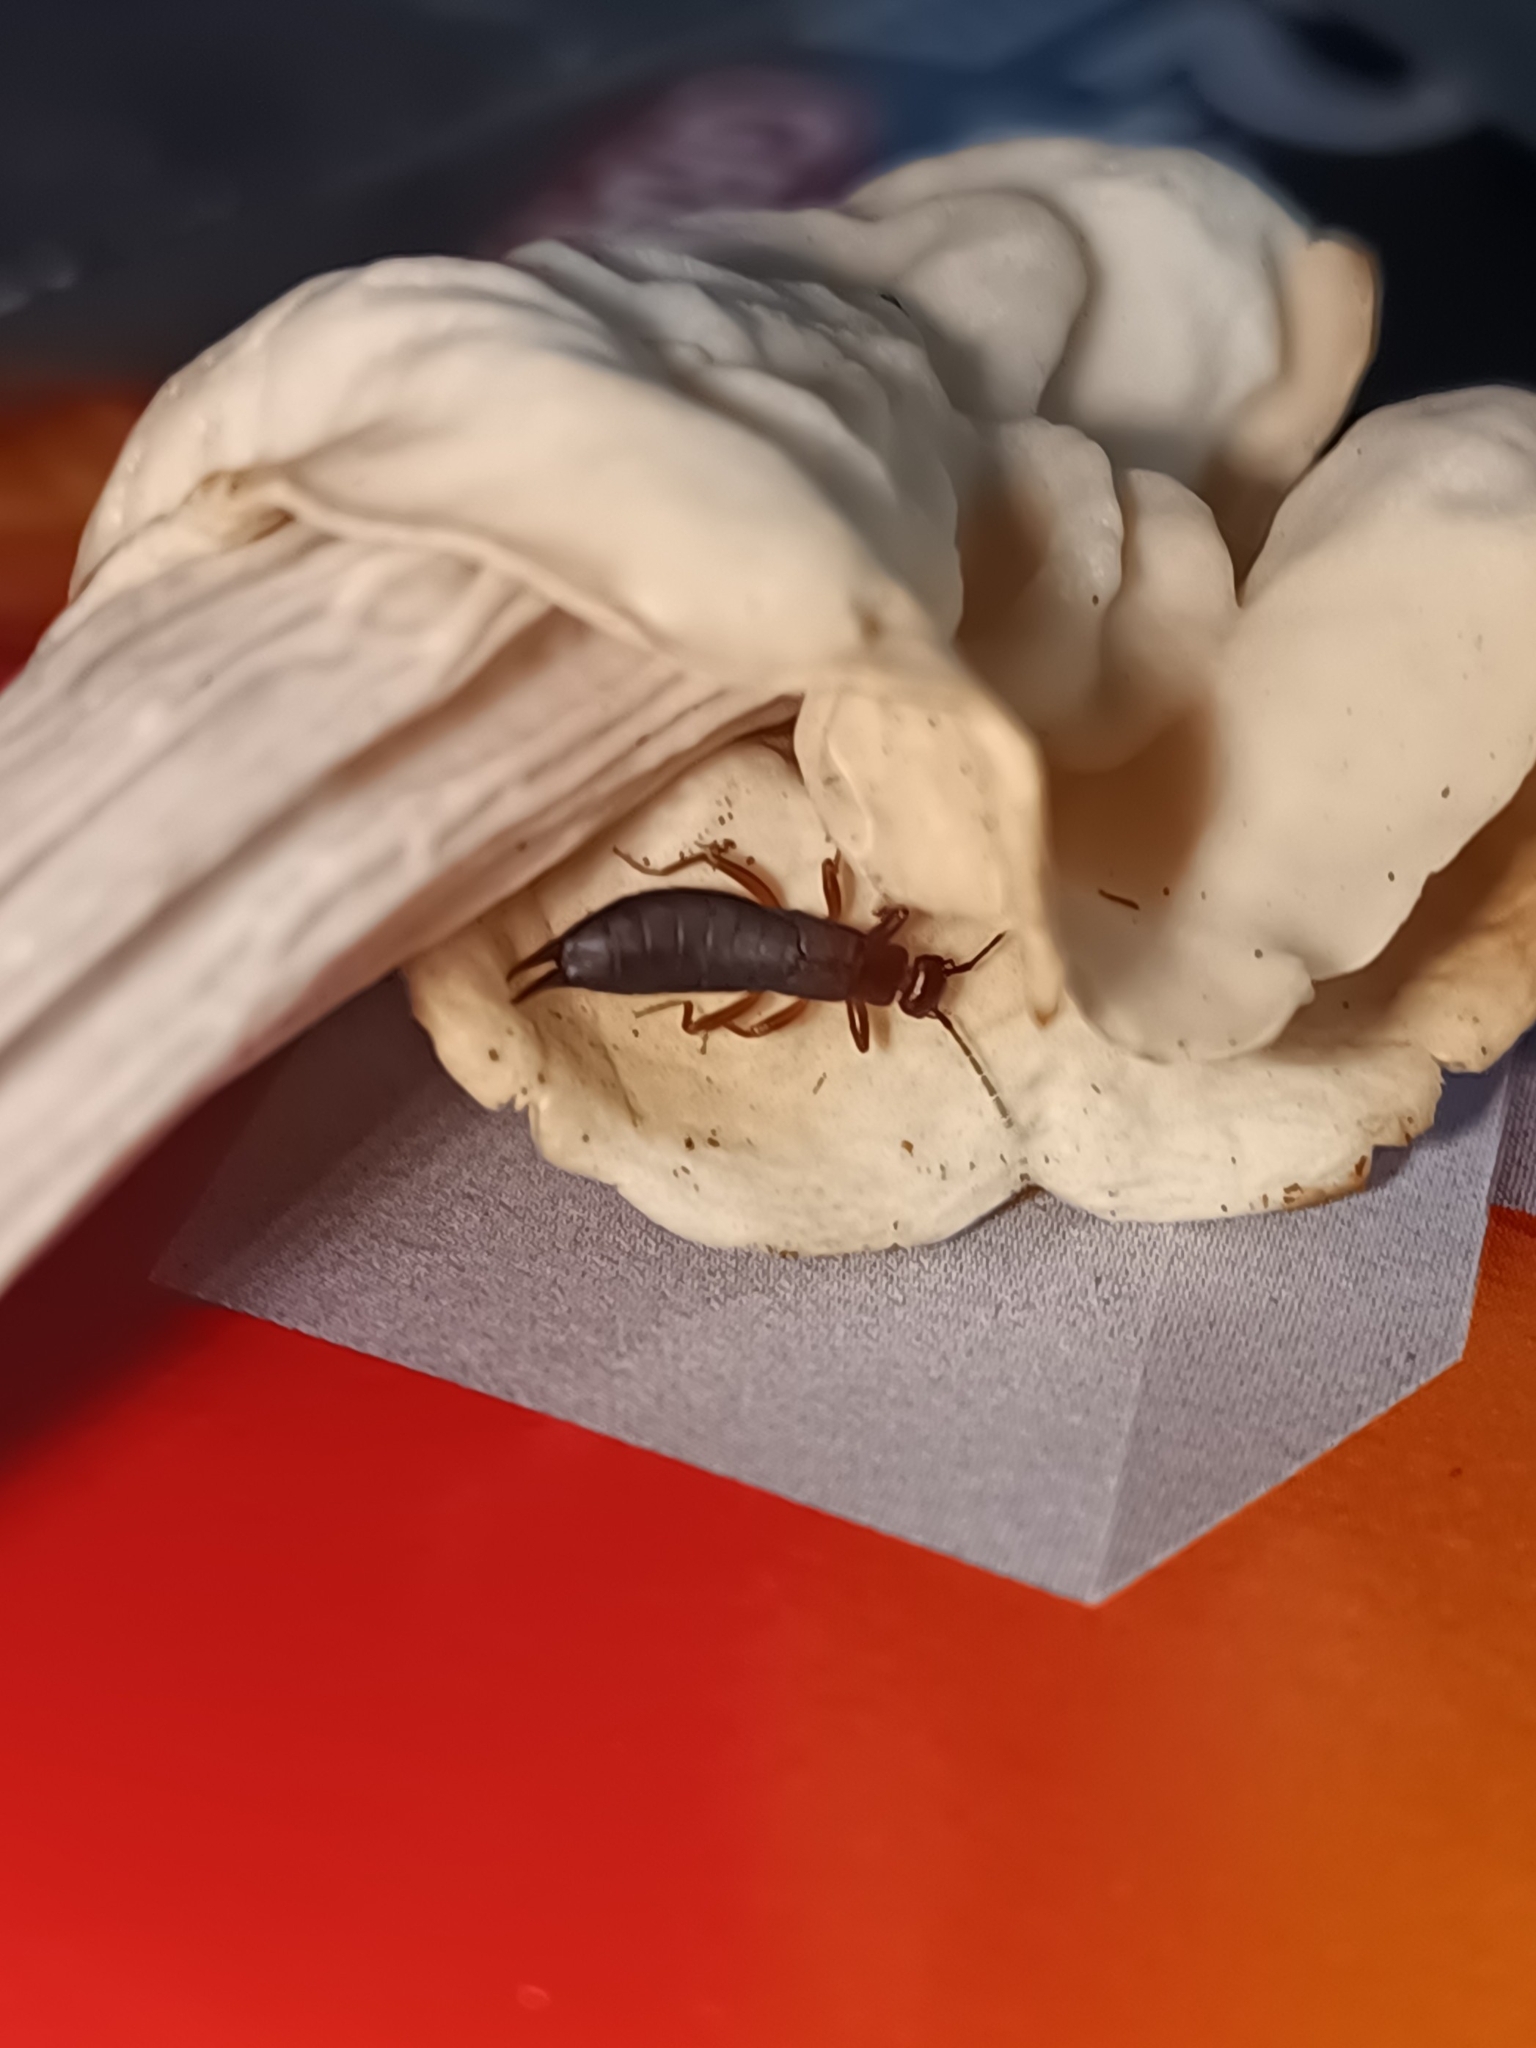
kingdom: Animalia
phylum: Arthropoda
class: Insecta
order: Dermaptera
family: Forficulidae
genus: Metresura
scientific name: Metresura pygmaea
